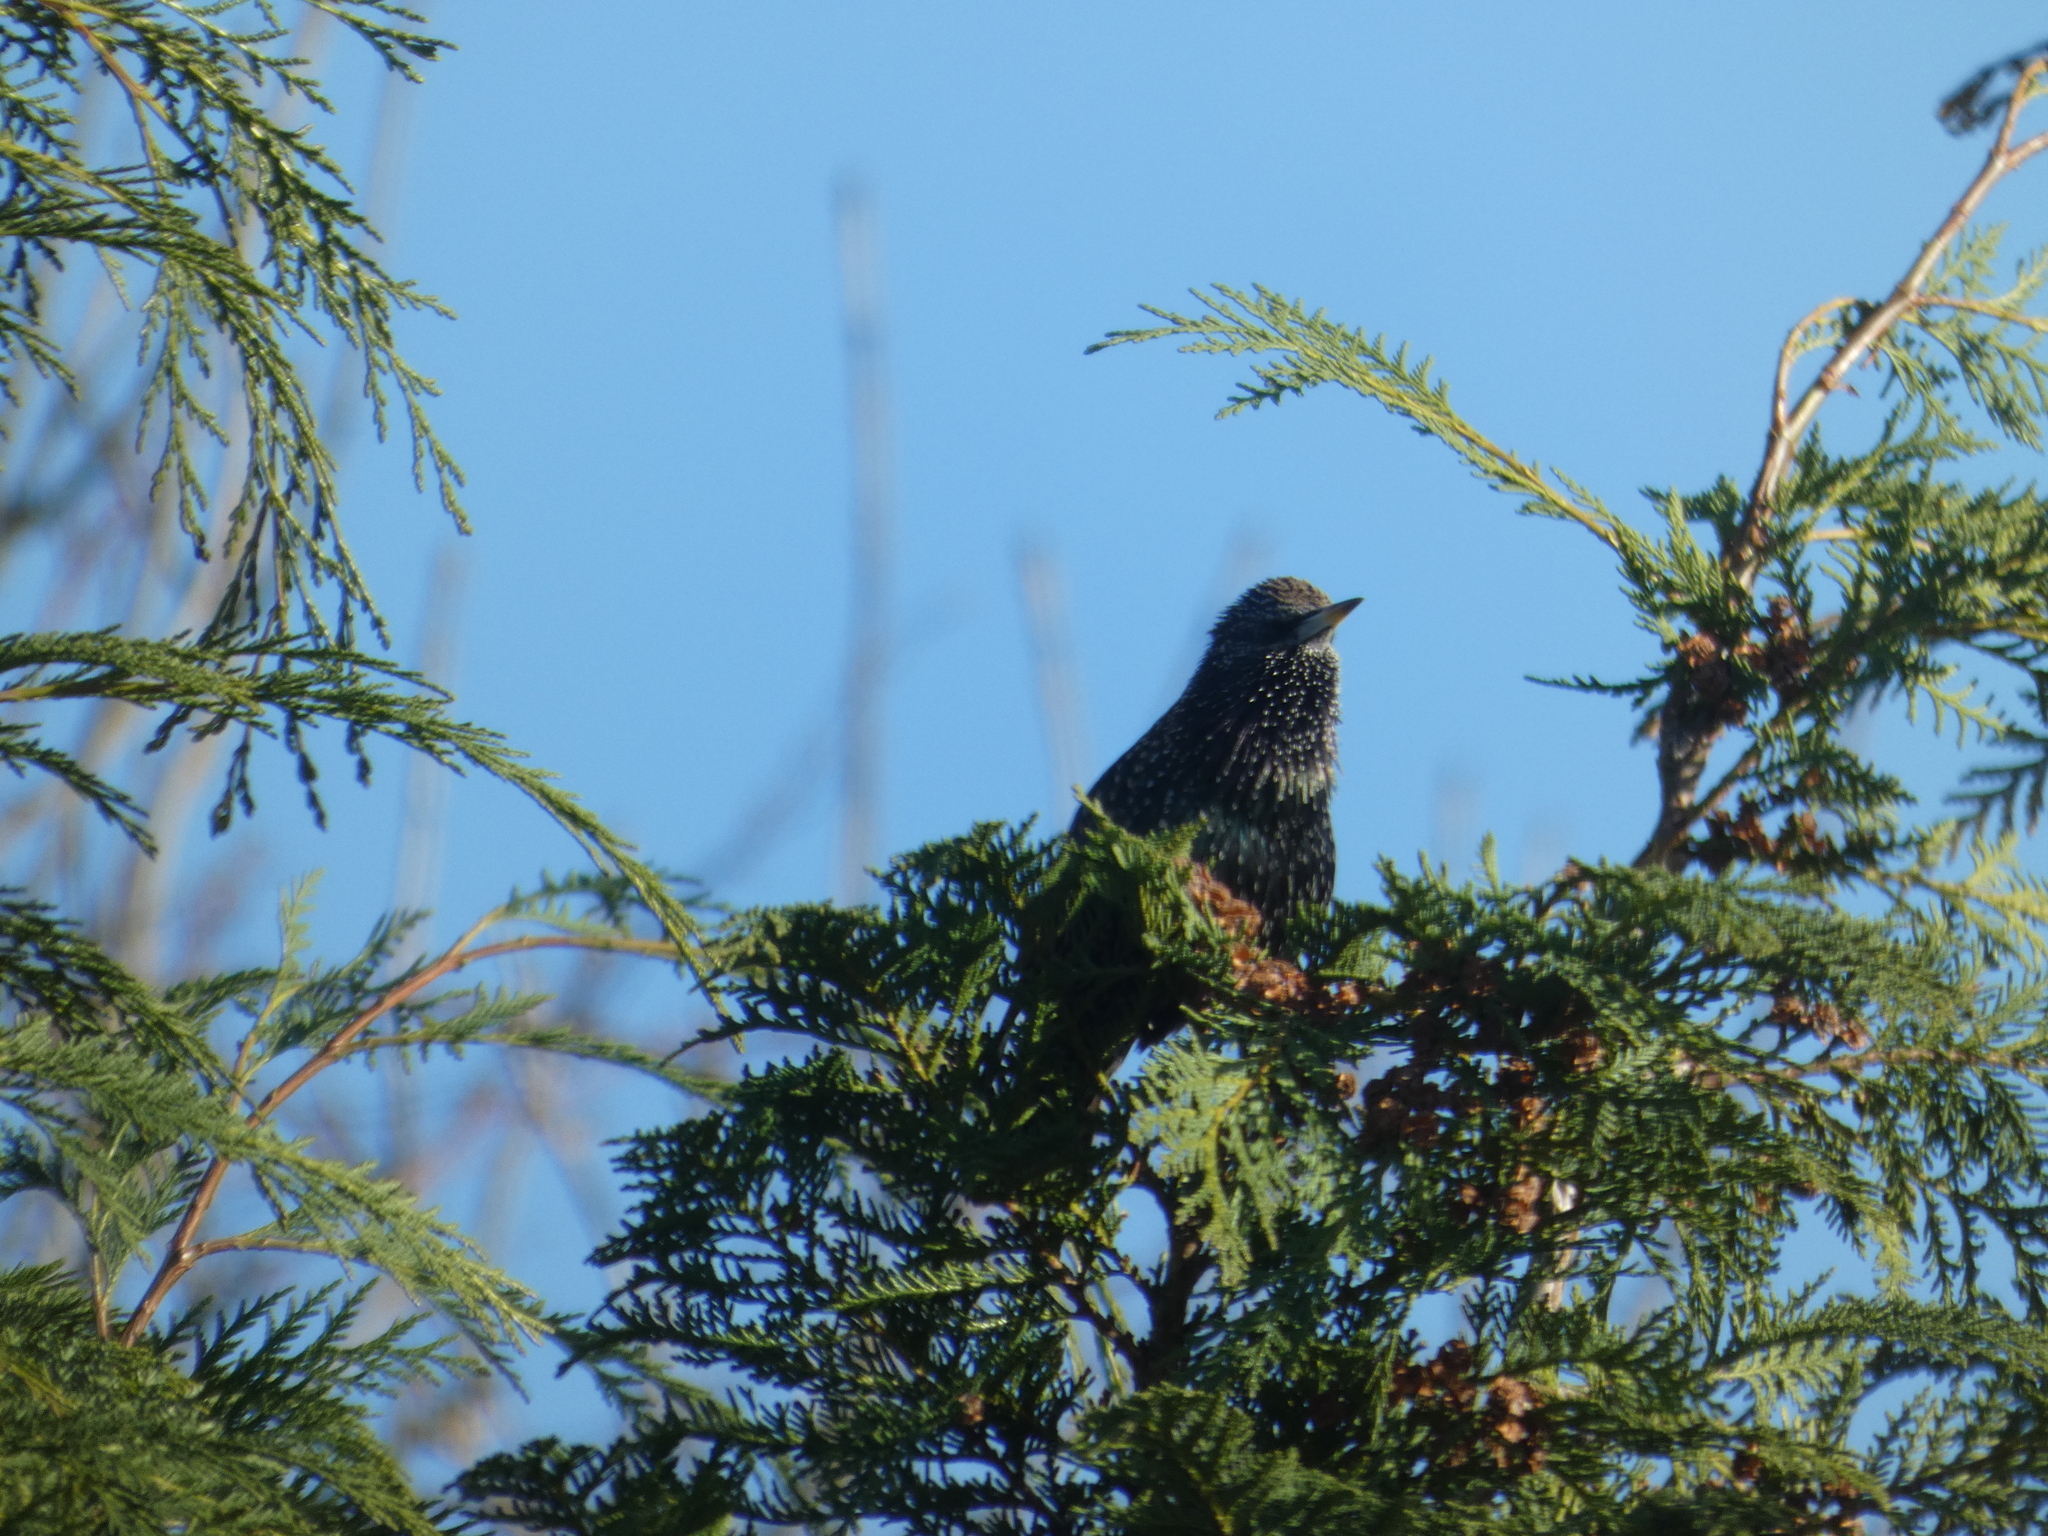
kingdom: Animalia
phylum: Chordata
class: Aves
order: Passeriformes
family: Sturnidae
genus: Sturnus
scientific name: Sturnus vulgaris
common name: Common starling
